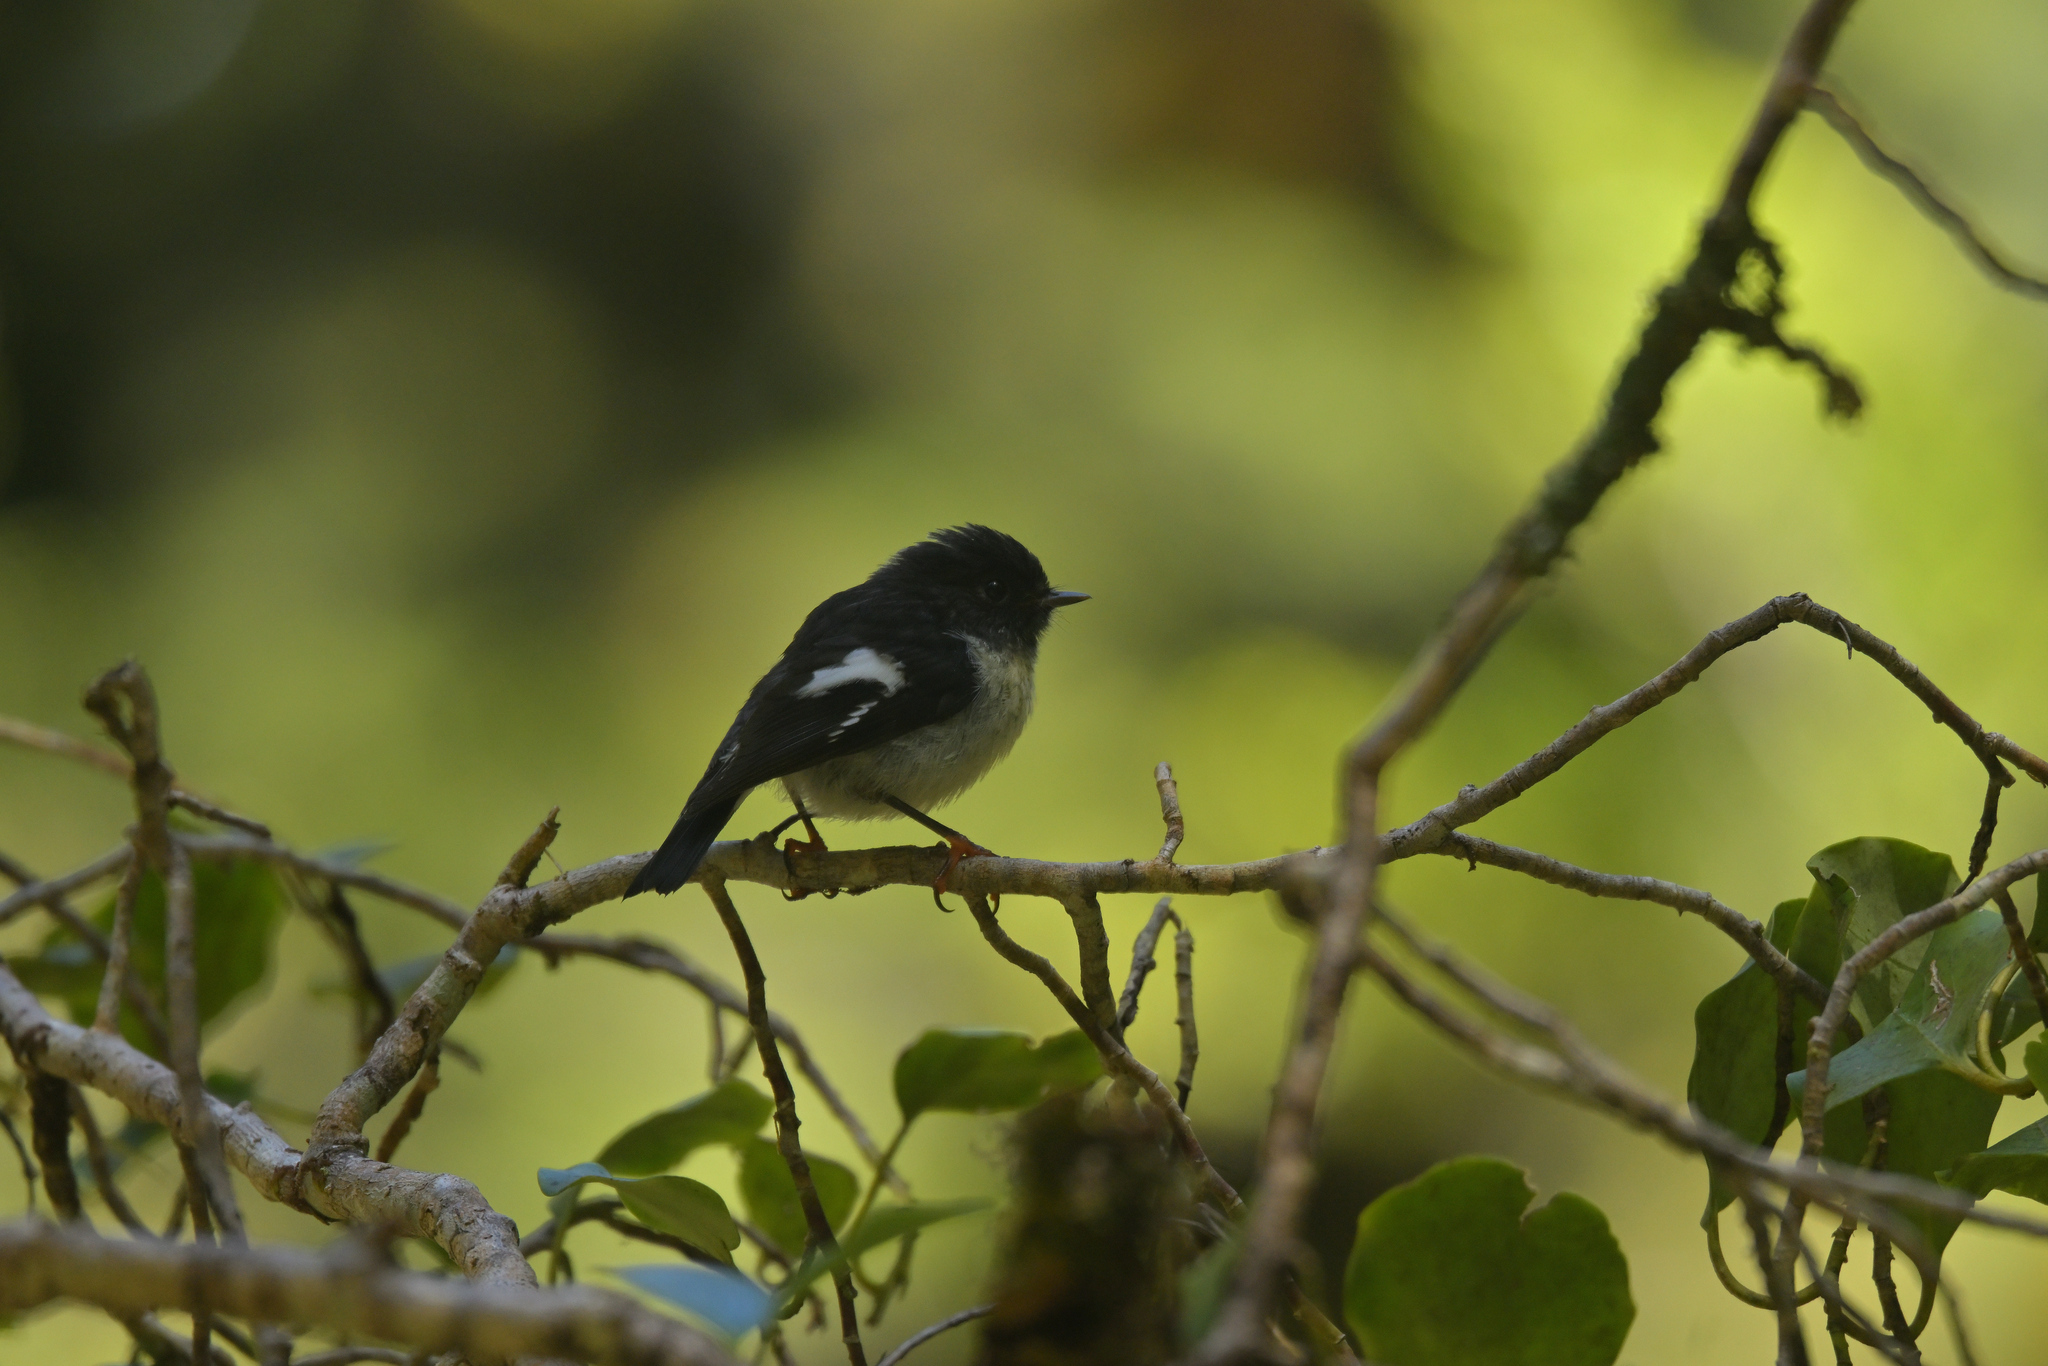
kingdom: Animalia
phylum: Chordata
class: Aves
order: Passeriformes
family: Petroicidae
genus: Petroica
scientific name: Petroica macrocephala
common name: Tomtit
